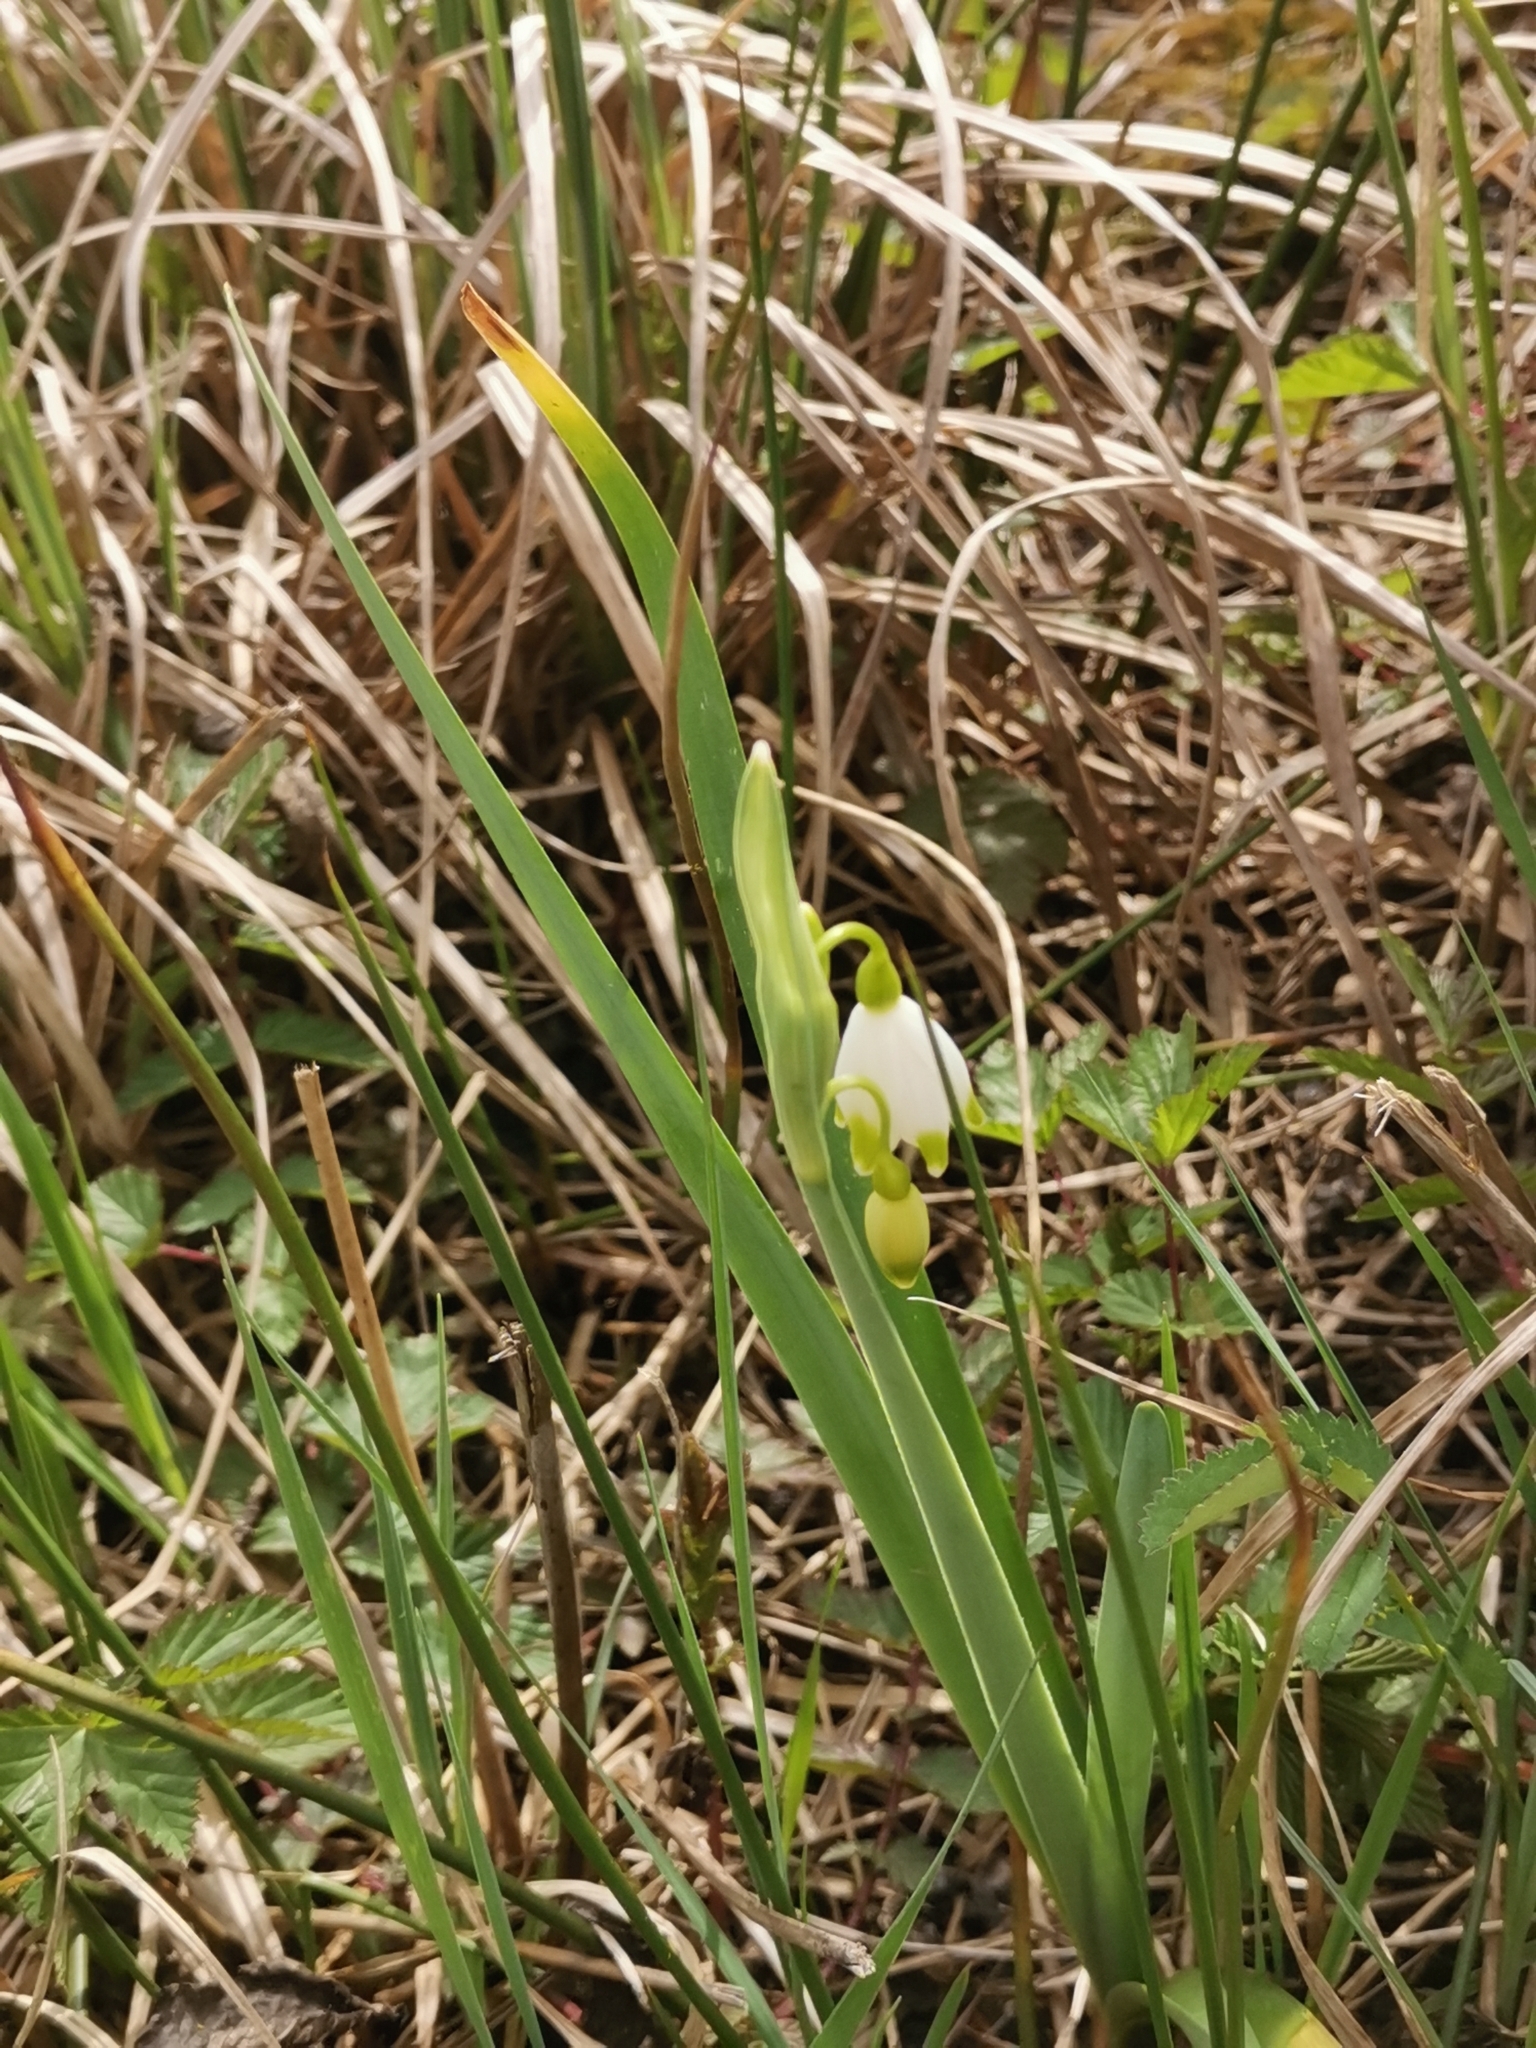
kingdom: Plantae
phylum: Tracheophyta
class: Liliopsida
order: Asparagales
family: Amaryllidaceae
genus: Leucojum
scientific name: Leucojum aestivum
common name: Summer snowflake
